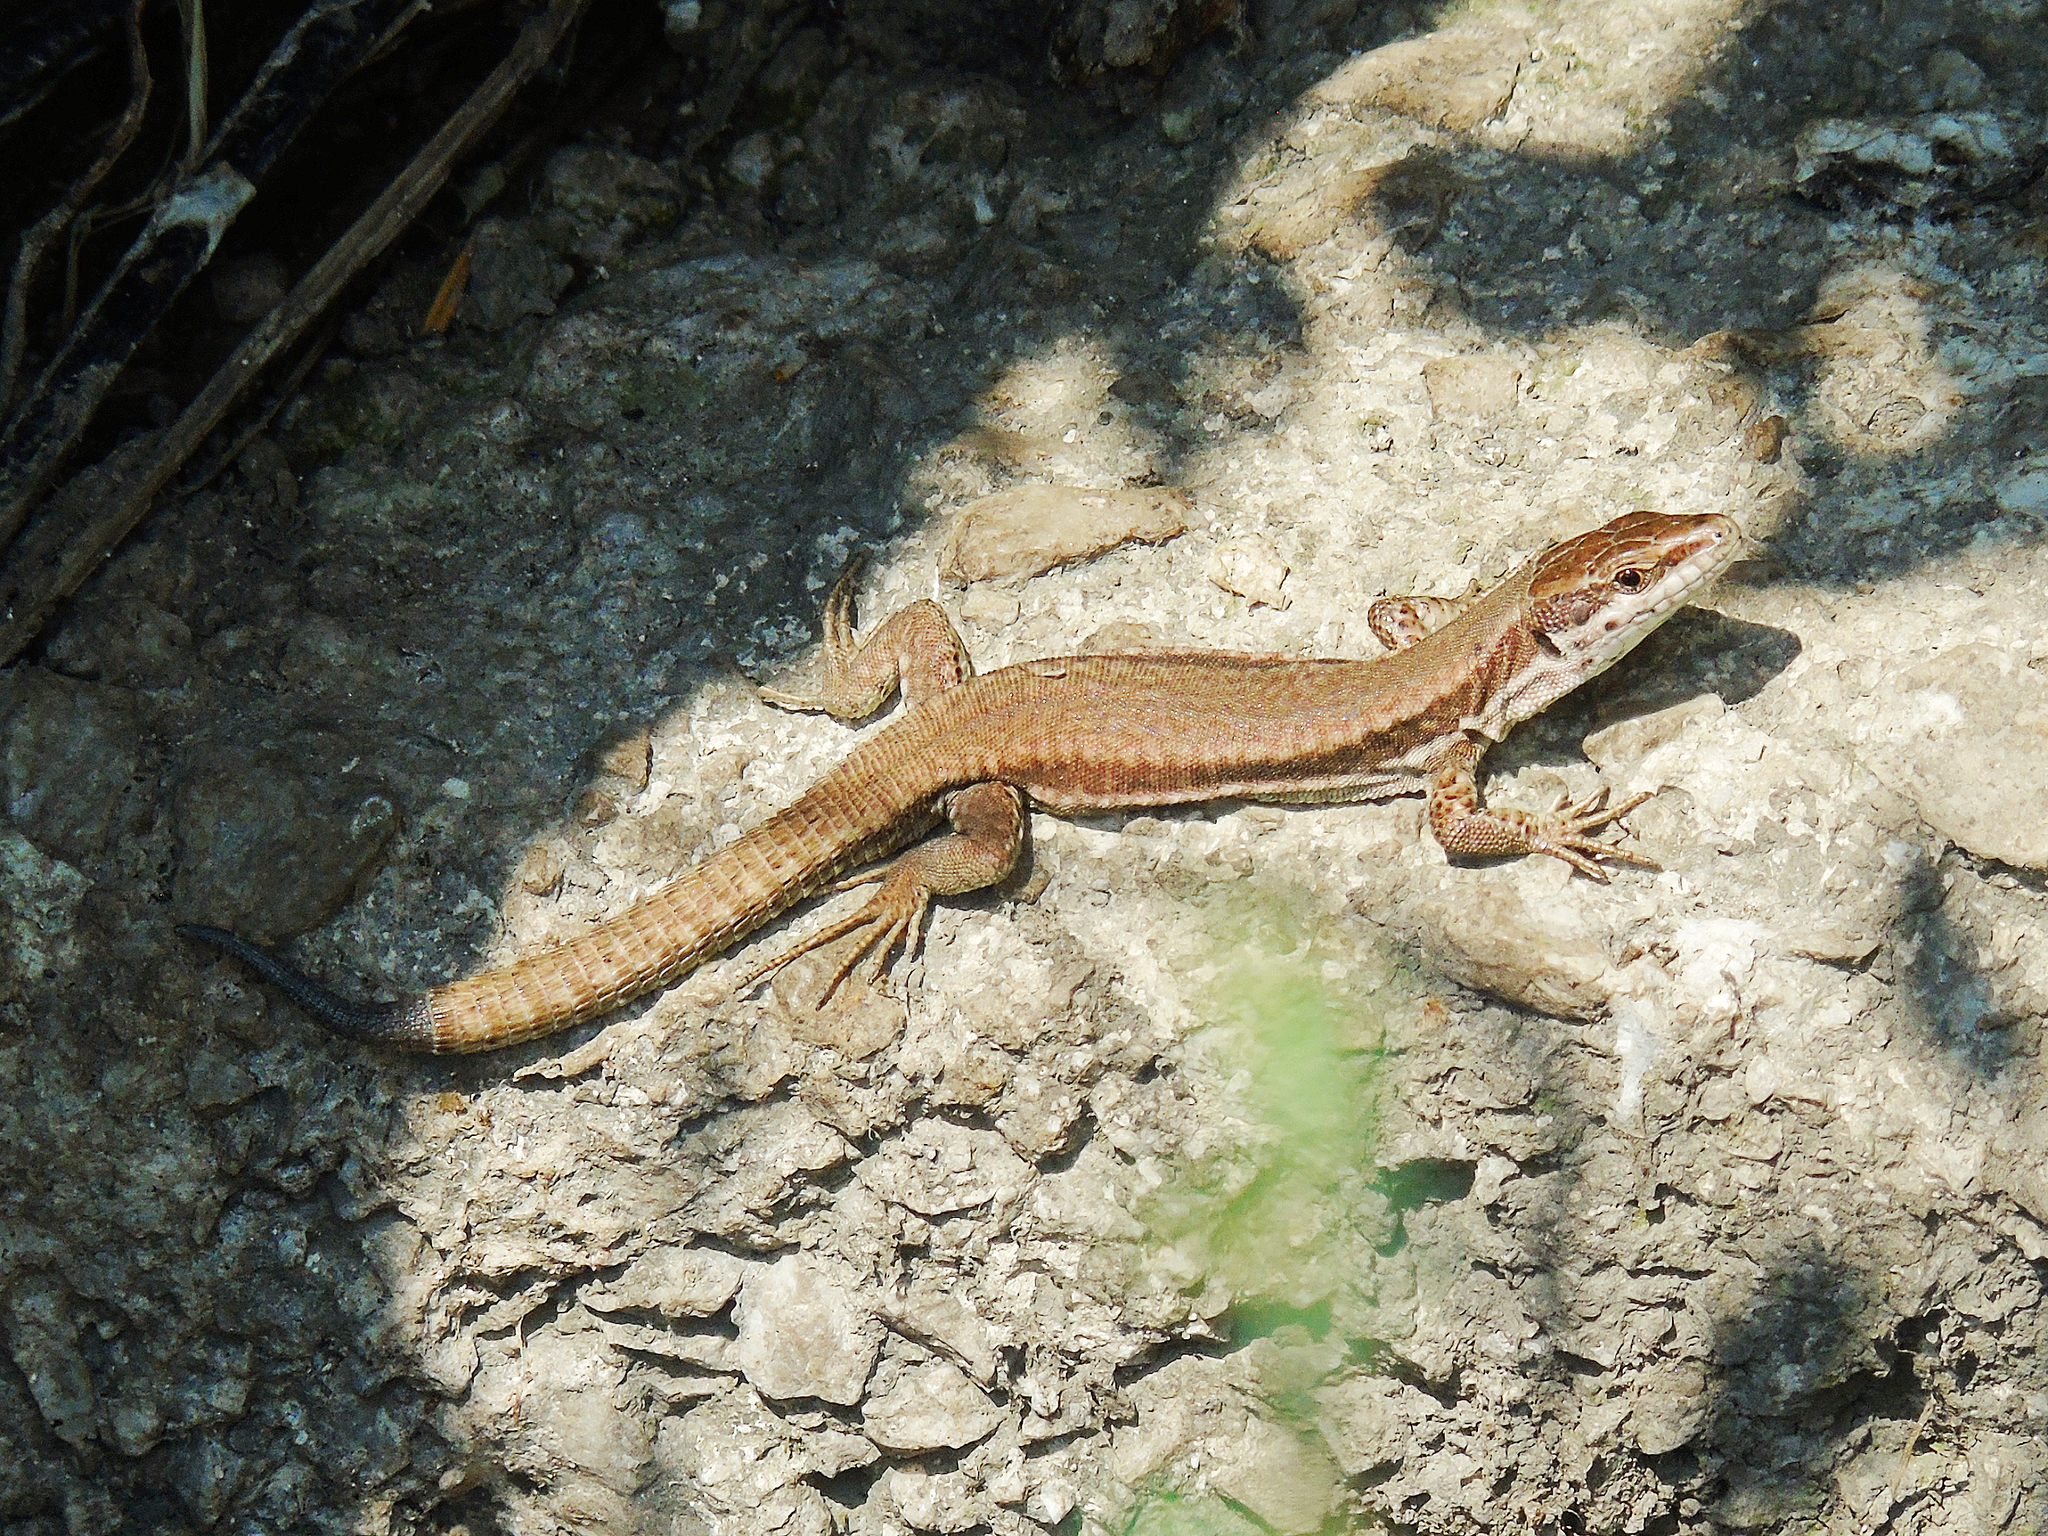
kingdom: Animalia
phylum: Chordata
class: Squamata
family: Lacertidae
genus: Podarcis
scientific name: Podarcis muralis
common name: Common wall lizard
